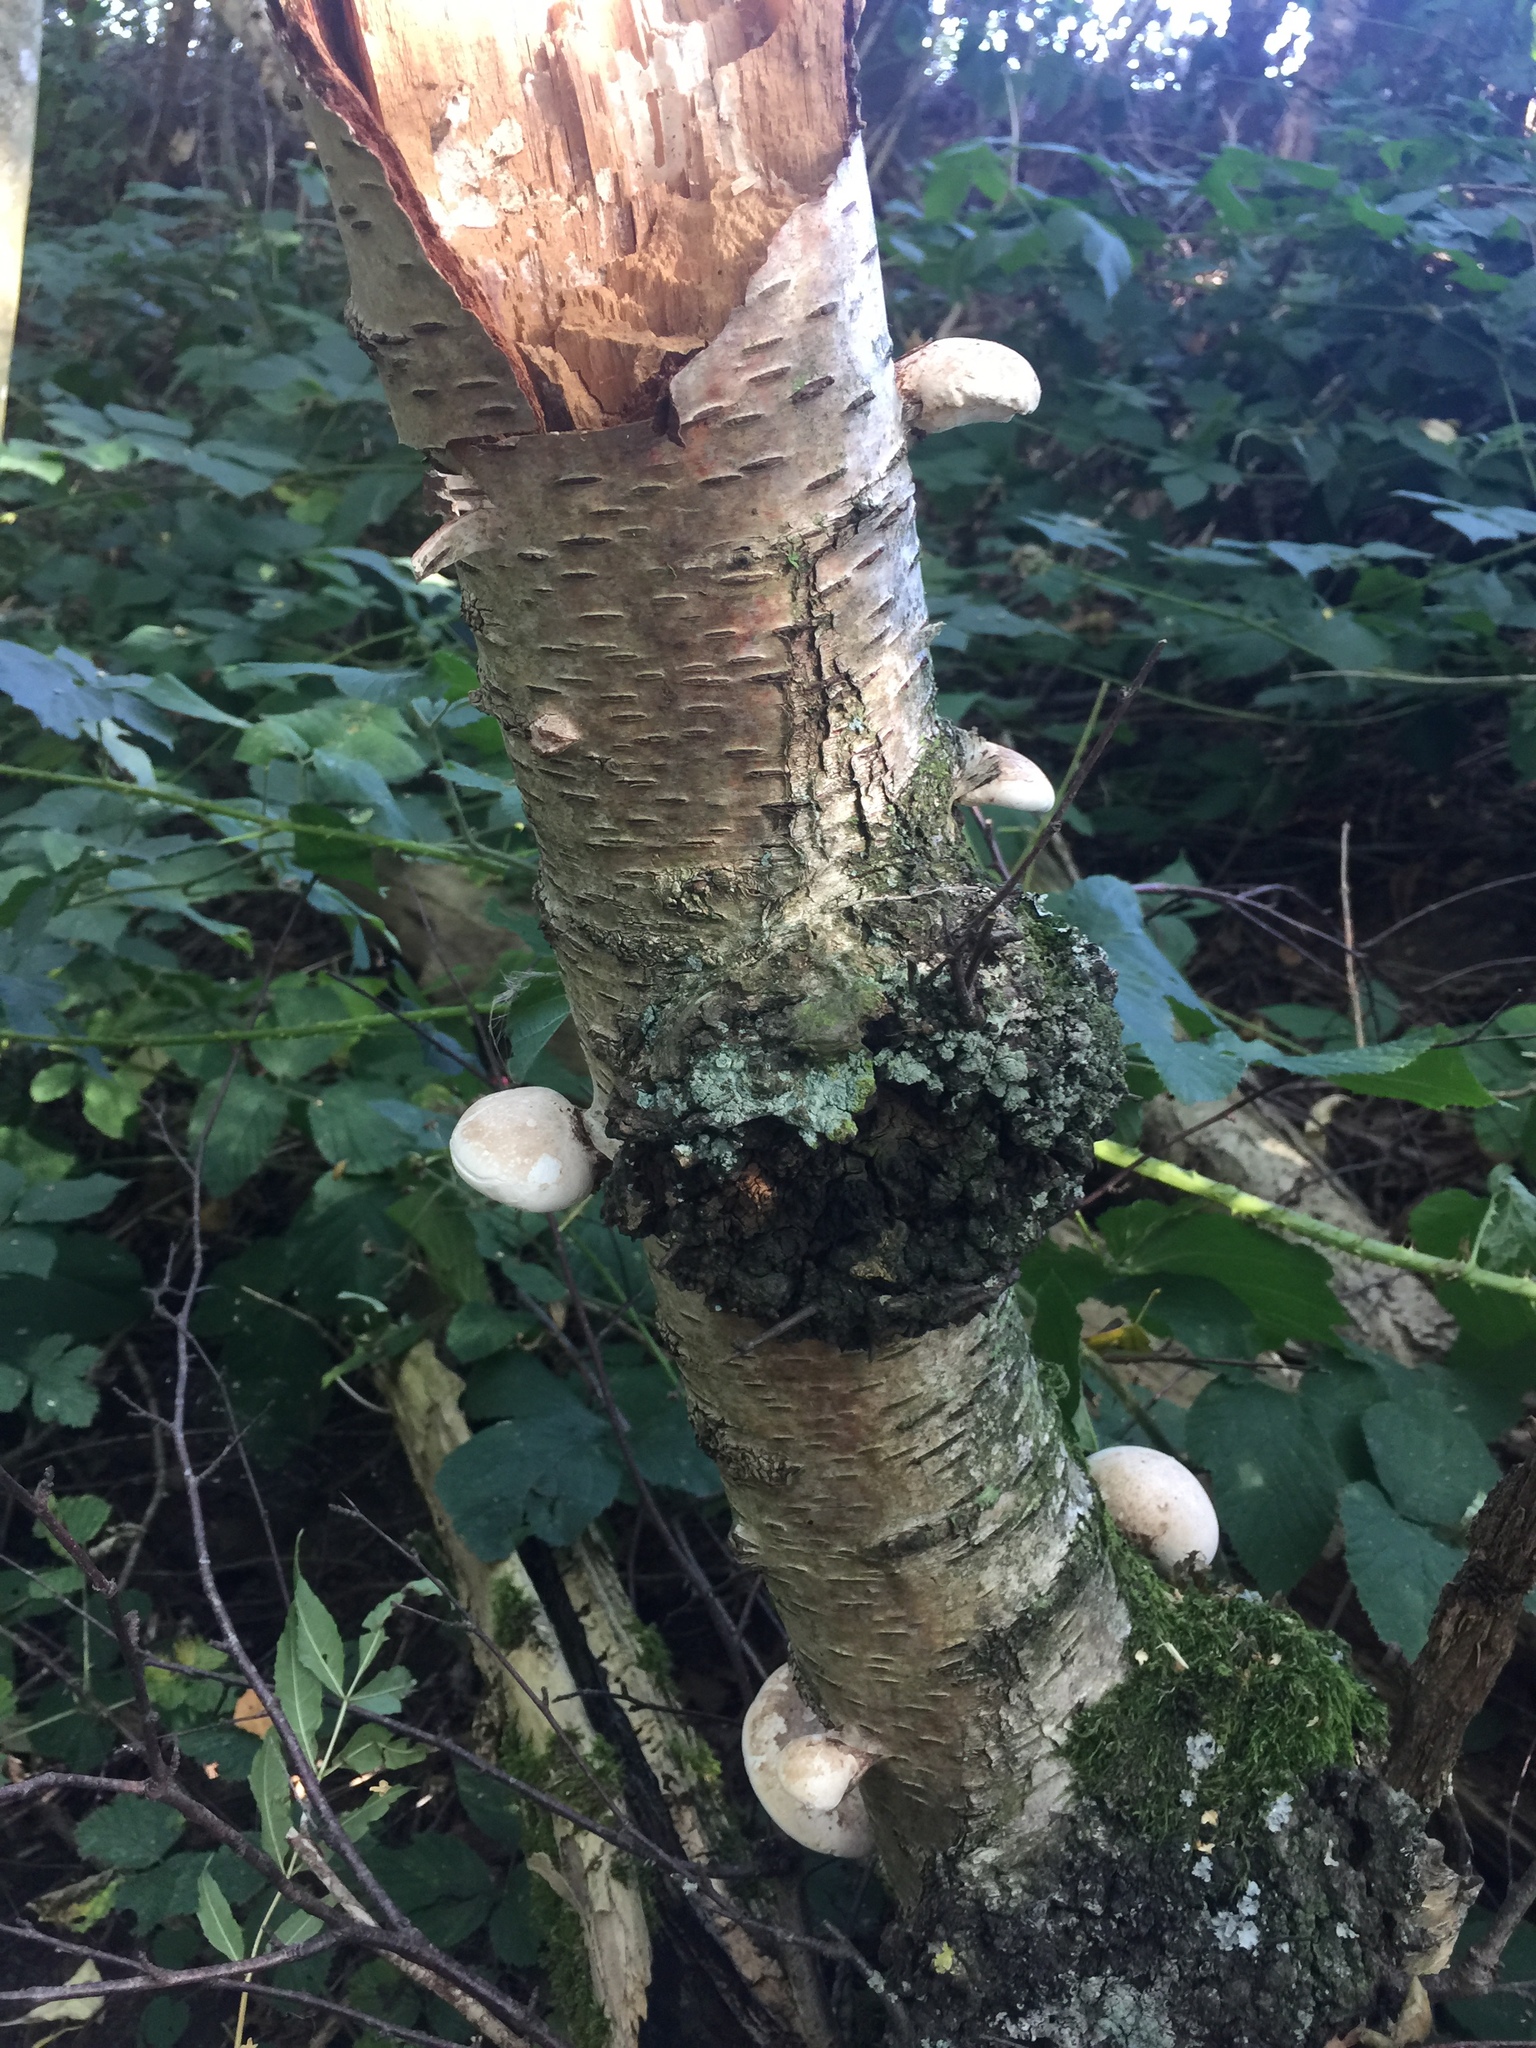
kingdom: Fungi
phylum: Basidiomycota
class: Agaricomycetes
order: Polyporales
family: Fomitopsidaceae
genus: Fomitopsis
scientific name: Fomitopsis betulina
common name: Birch polypore
